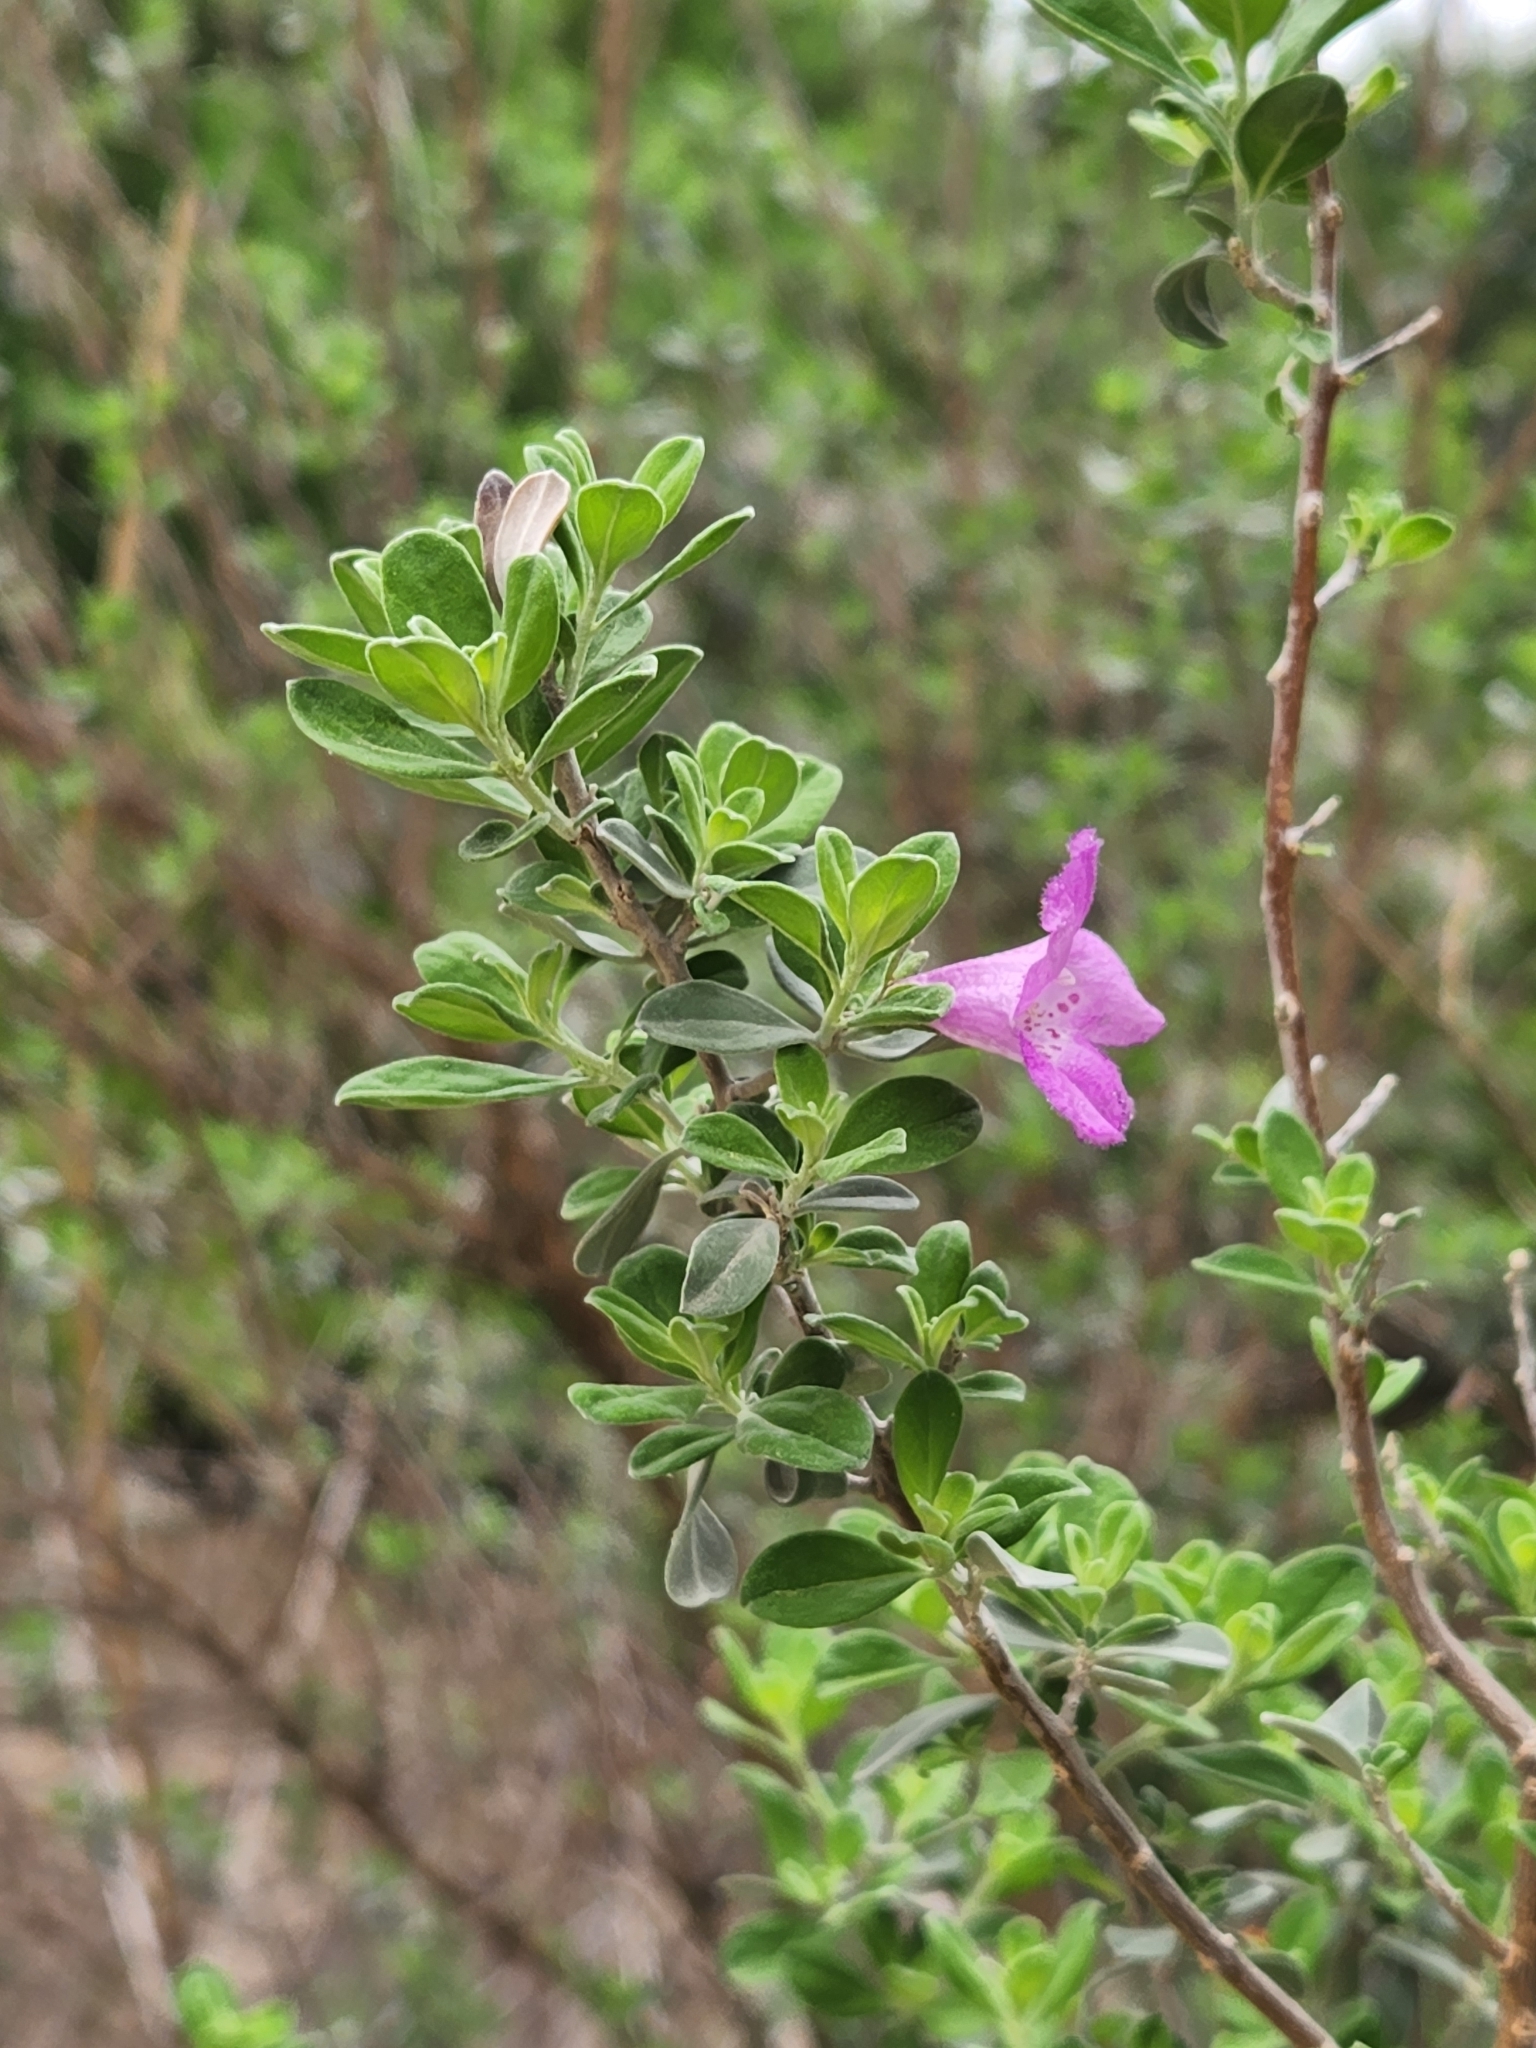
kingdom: Plantae
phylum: Tracheophyta
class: Magnoliopsida
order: Lamiales
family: Scrophulariaceae
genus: Leucophyllum
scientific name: Leucophyllum frutescens
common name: Texas silverleaf
